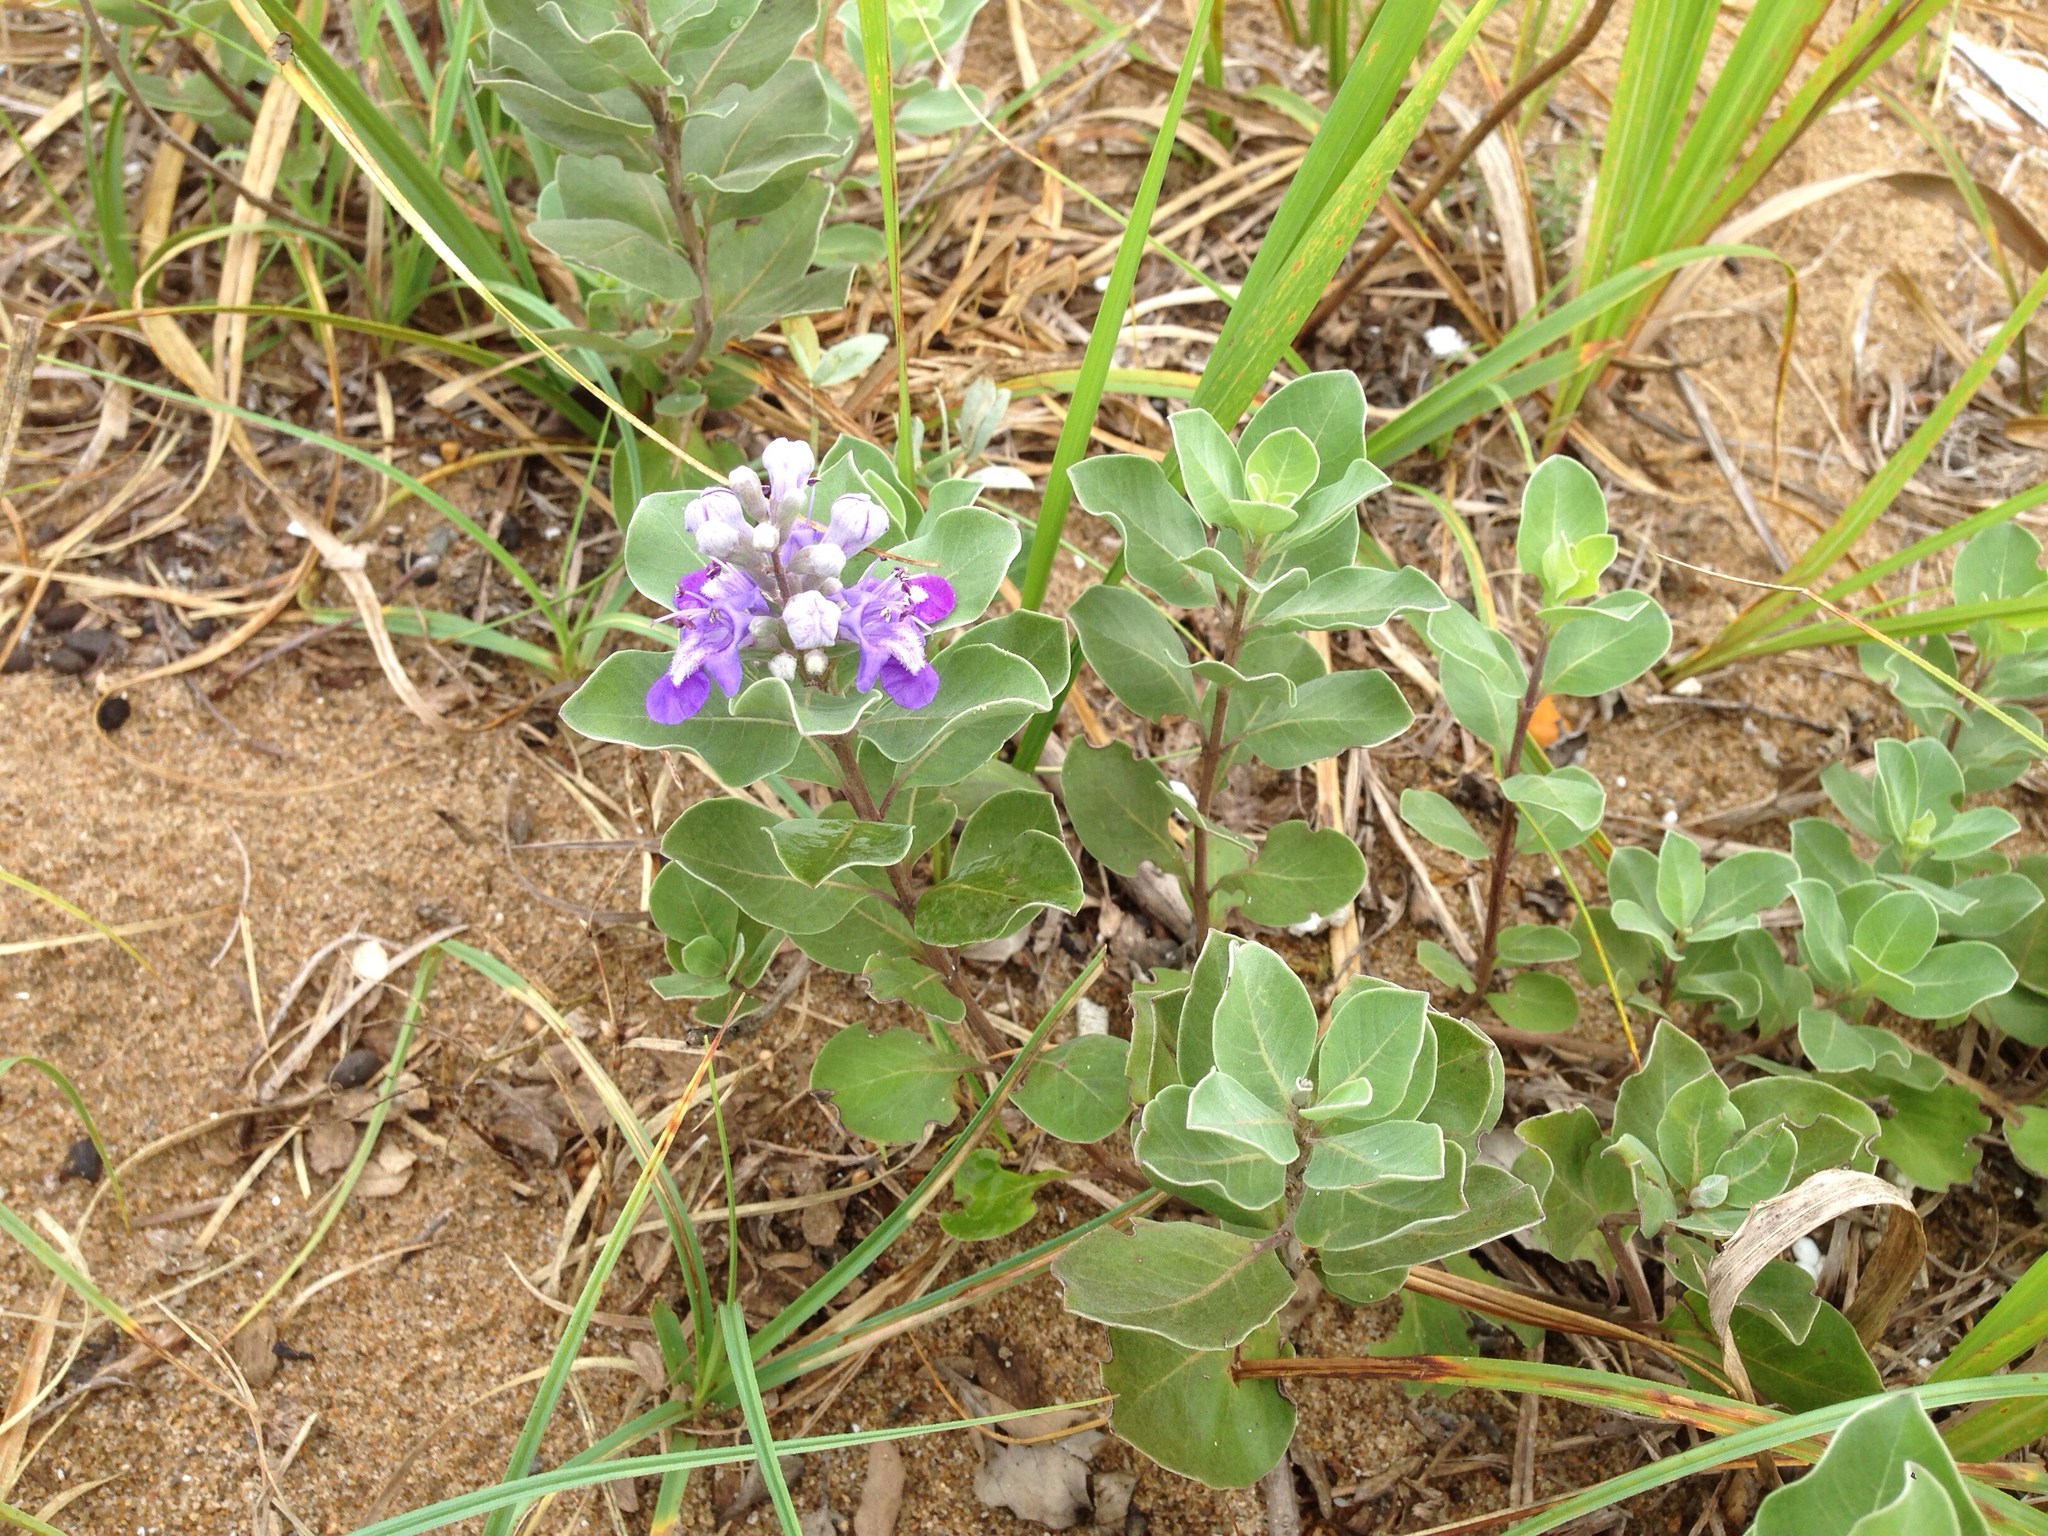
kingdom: Plantae
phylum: Tracheophyta
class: Magnoliopsida
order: Lamiales
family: Lamiaceae
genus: Vitex
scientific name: Vitex rotundifolia
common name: Beach vitex
